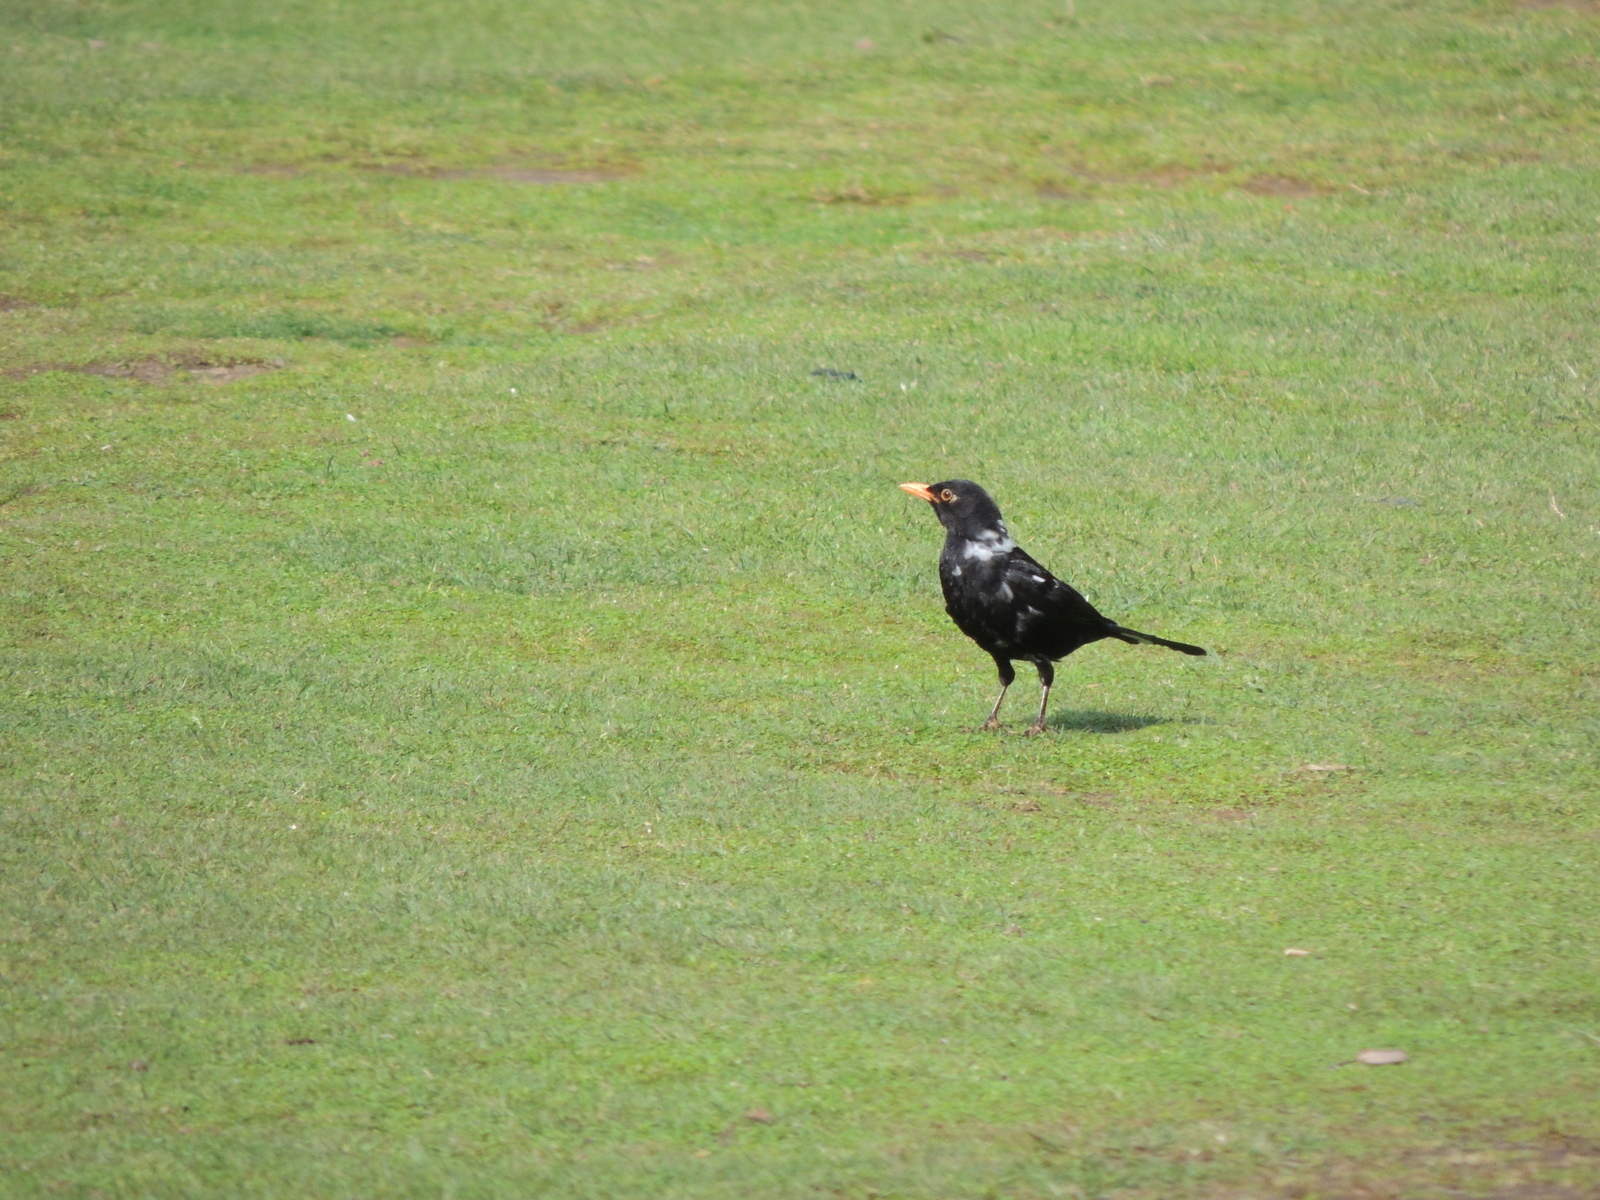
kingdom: Animalia
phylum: Chordata
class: Aves
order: Passeriformes
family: Turdidae
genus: Turdus
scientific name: Turdus merula
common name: Common blackbird
